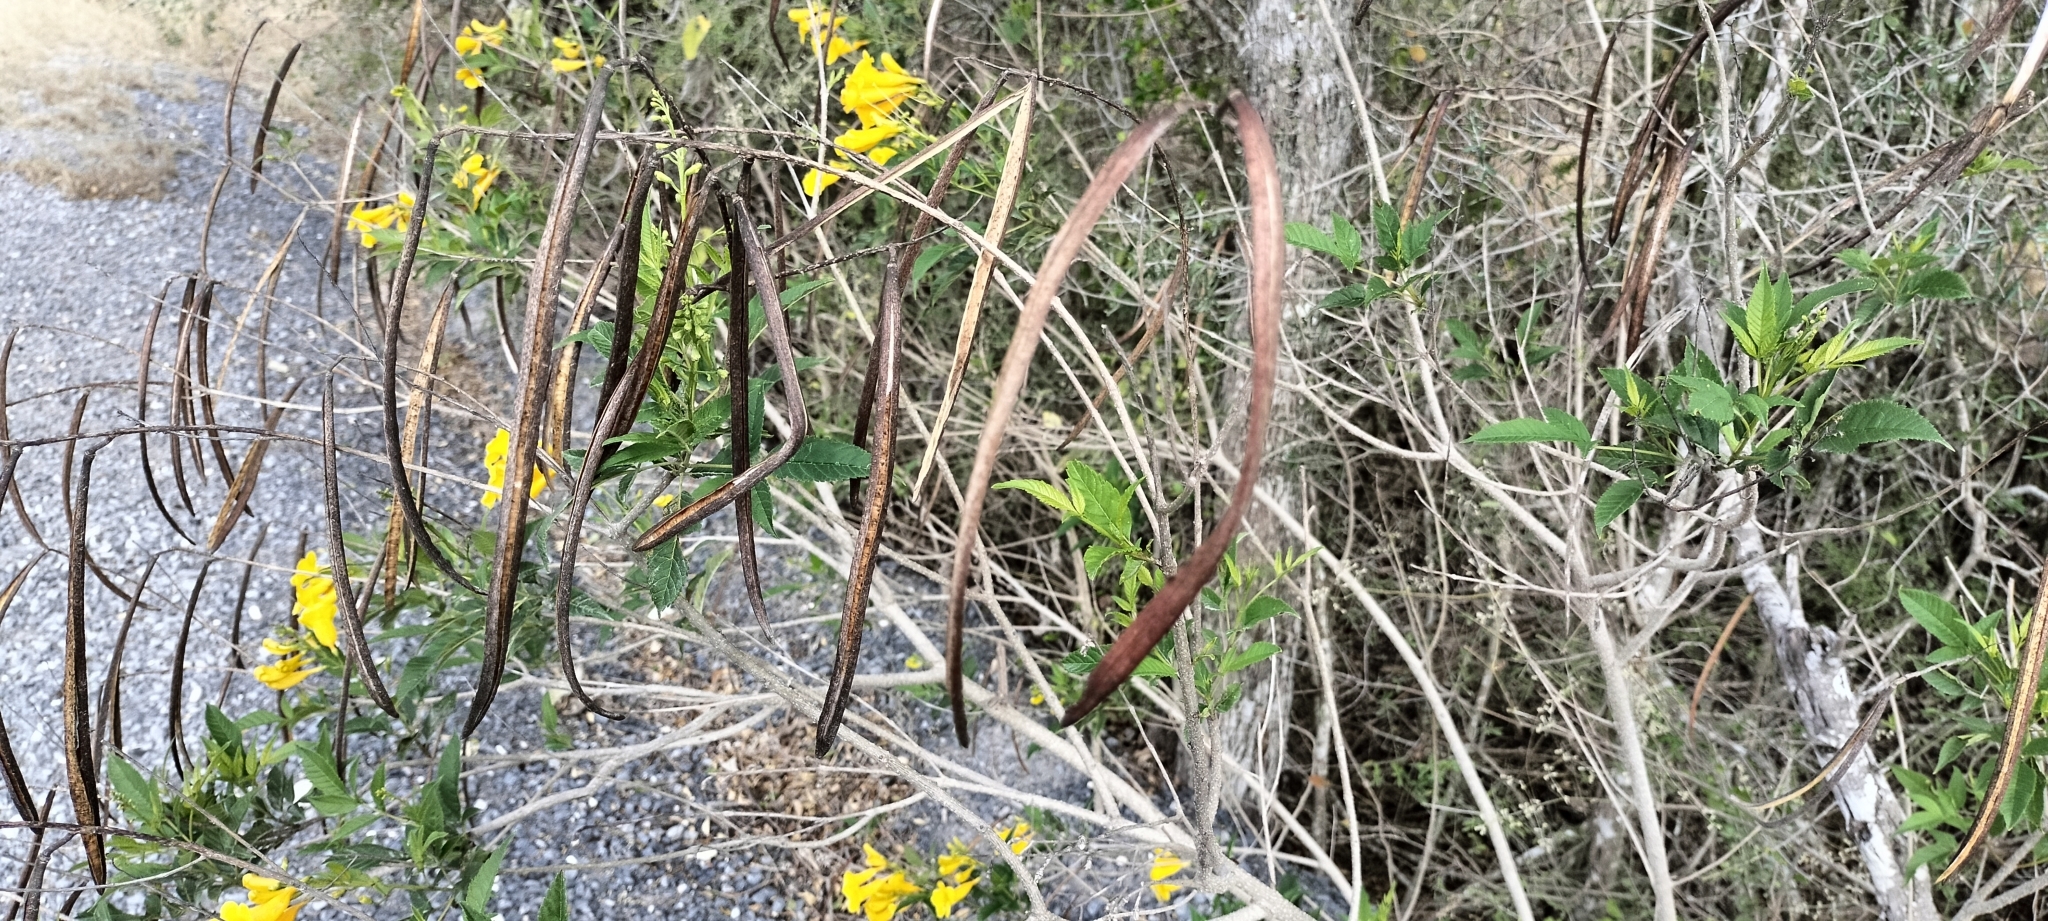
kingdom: Plantae
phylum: Tracheophyta
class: Magnoliopsida
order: Lamiales
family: Bignoniaceae
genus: Tecoma
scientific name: Tecoma stans
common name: Yellow trumpetbush
